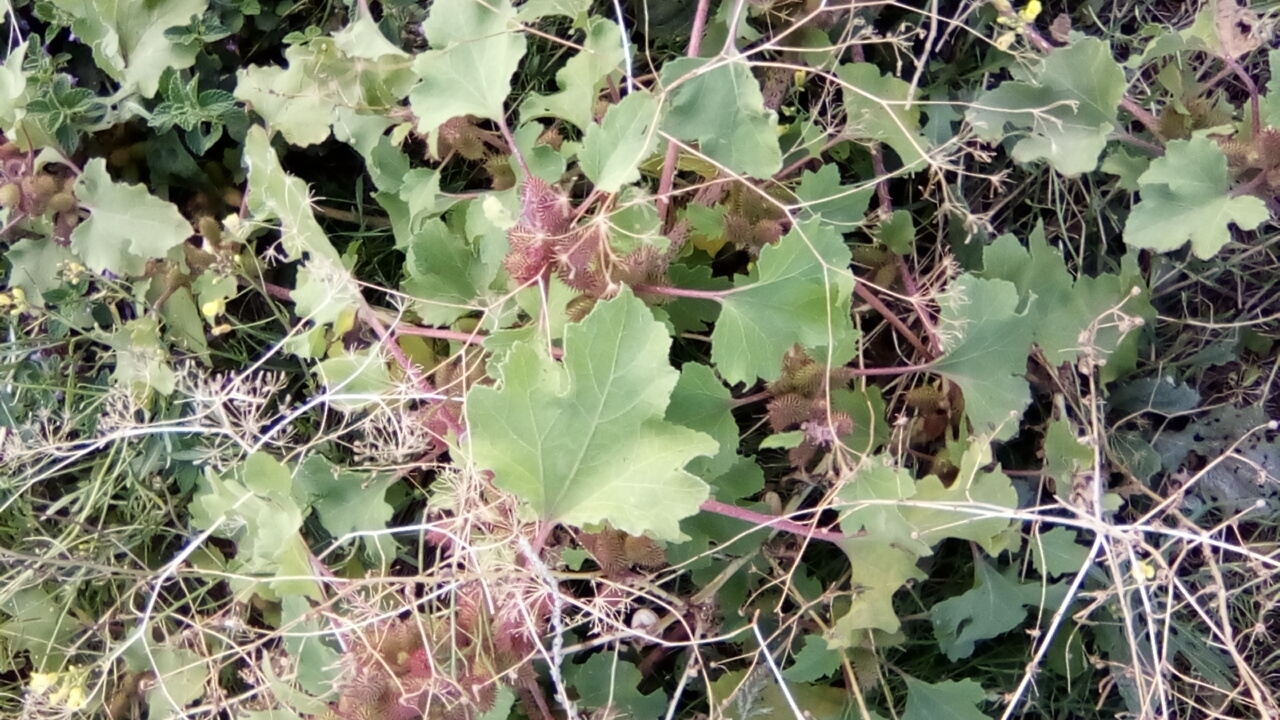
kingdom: Plantae
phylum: Tracheophyta
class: Magnoliopsida
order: Asterales
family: Asteraceae
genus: Xanthium
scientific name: Xanthium orientale
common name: Californian burr
